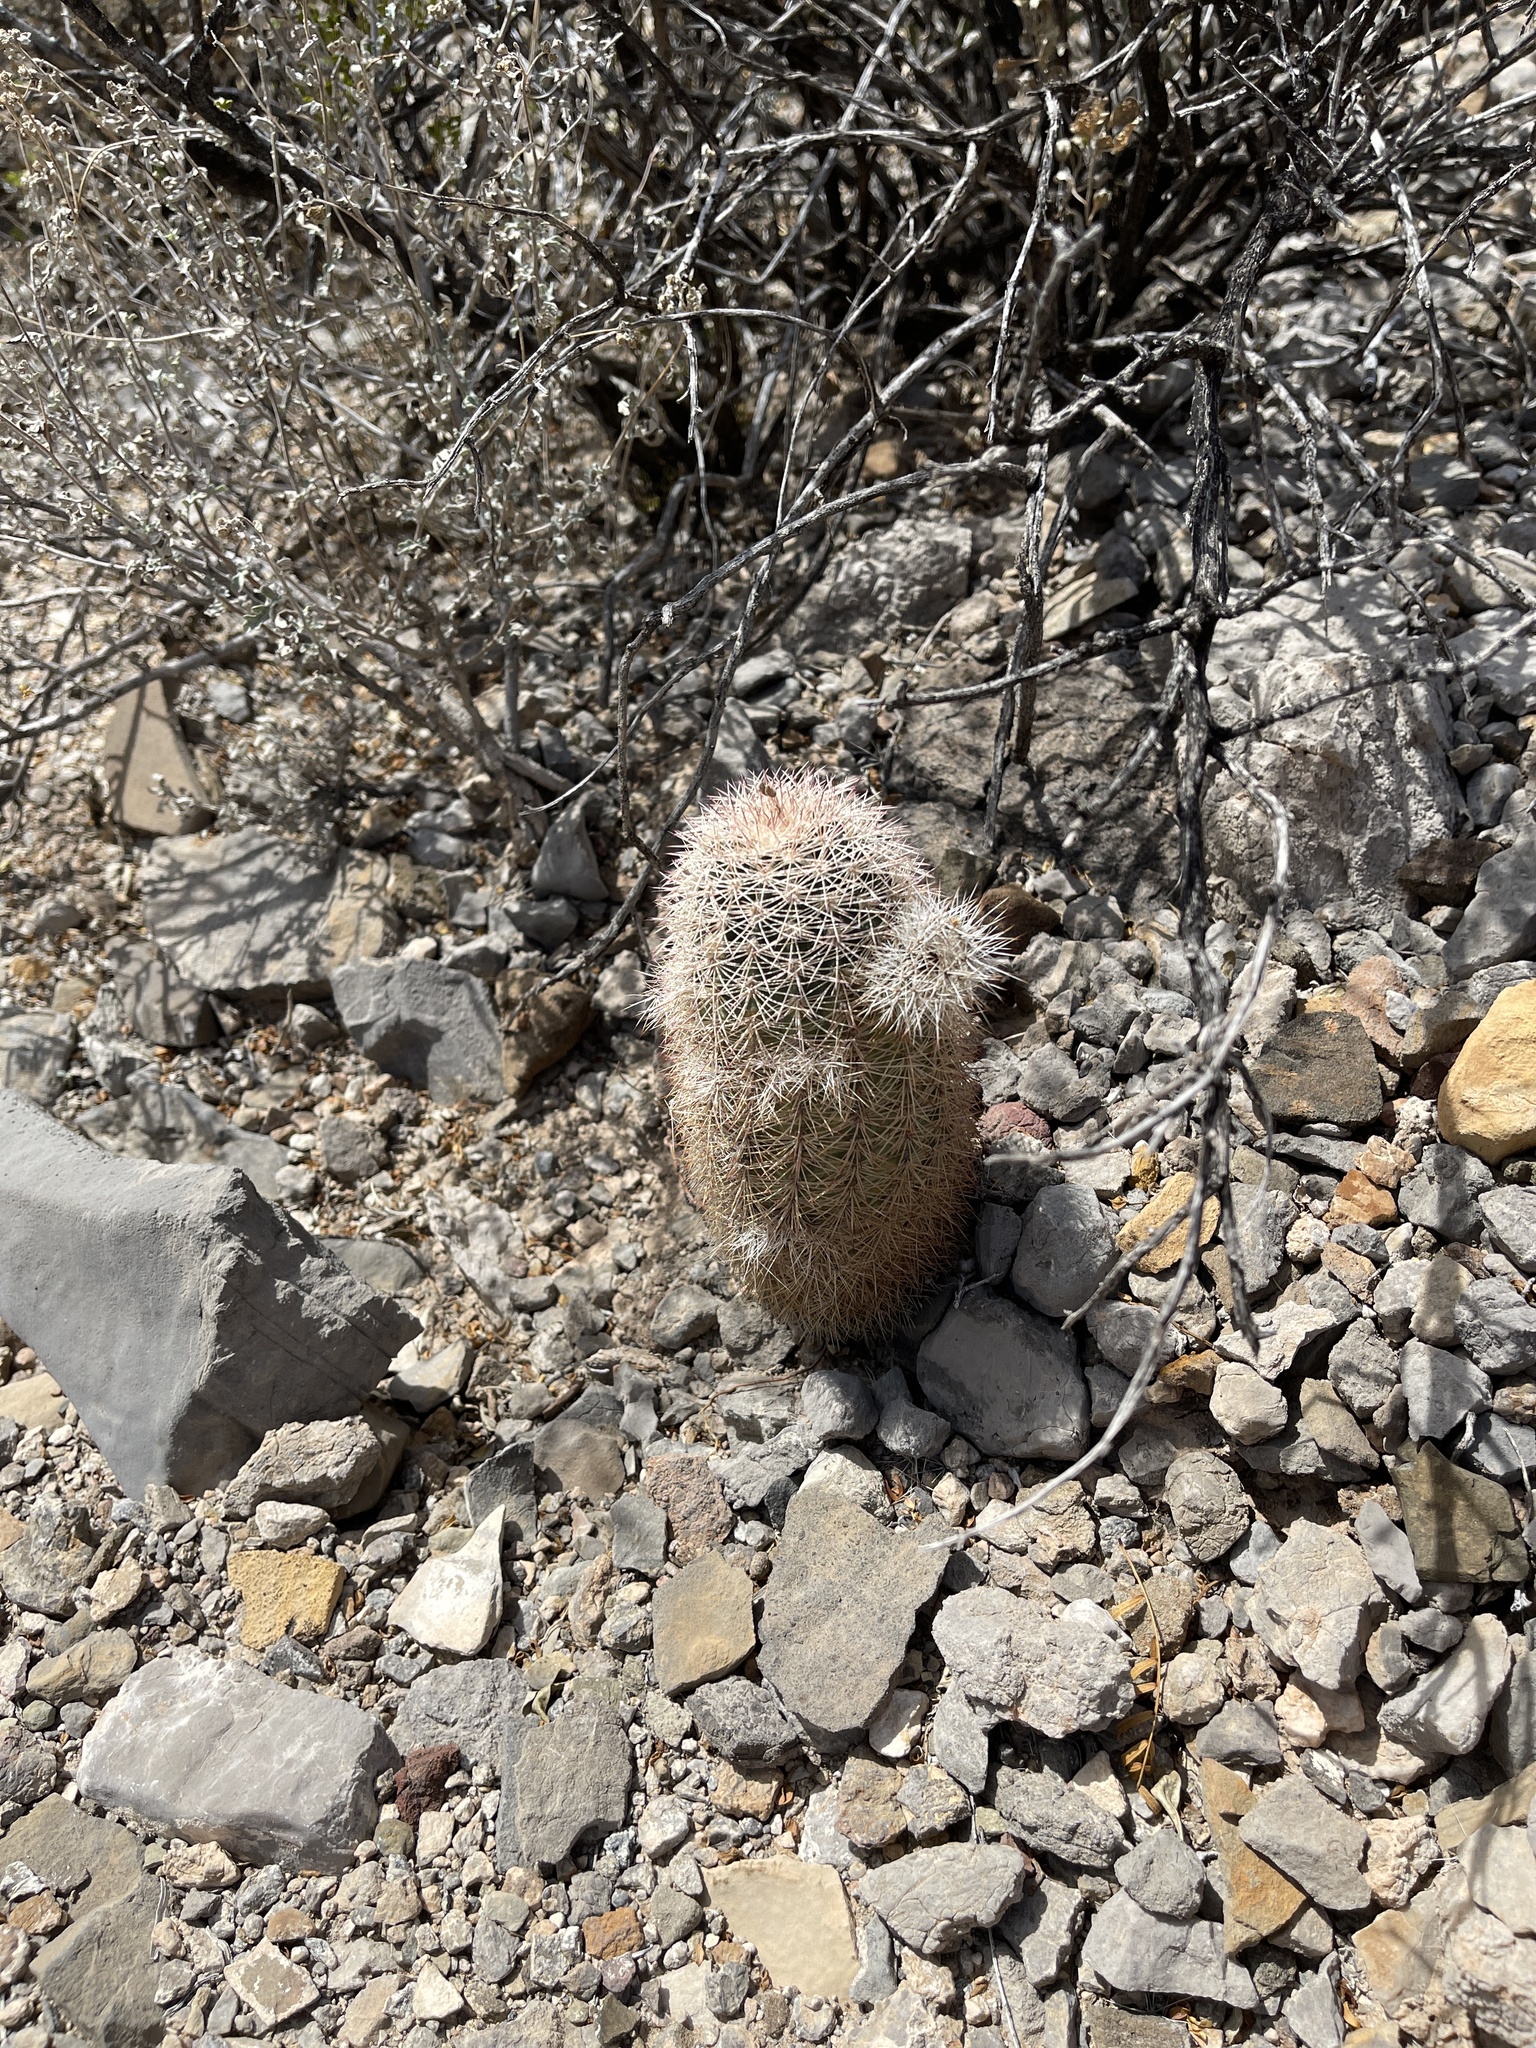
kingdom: Plantae
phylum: Tracheophyta
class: Magnoliopsida
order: Caryophyllales
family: Cactaceae
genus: Echinocereus
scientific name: Echinocereus dasyacanthus
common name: Spiny hedgehog cactus
